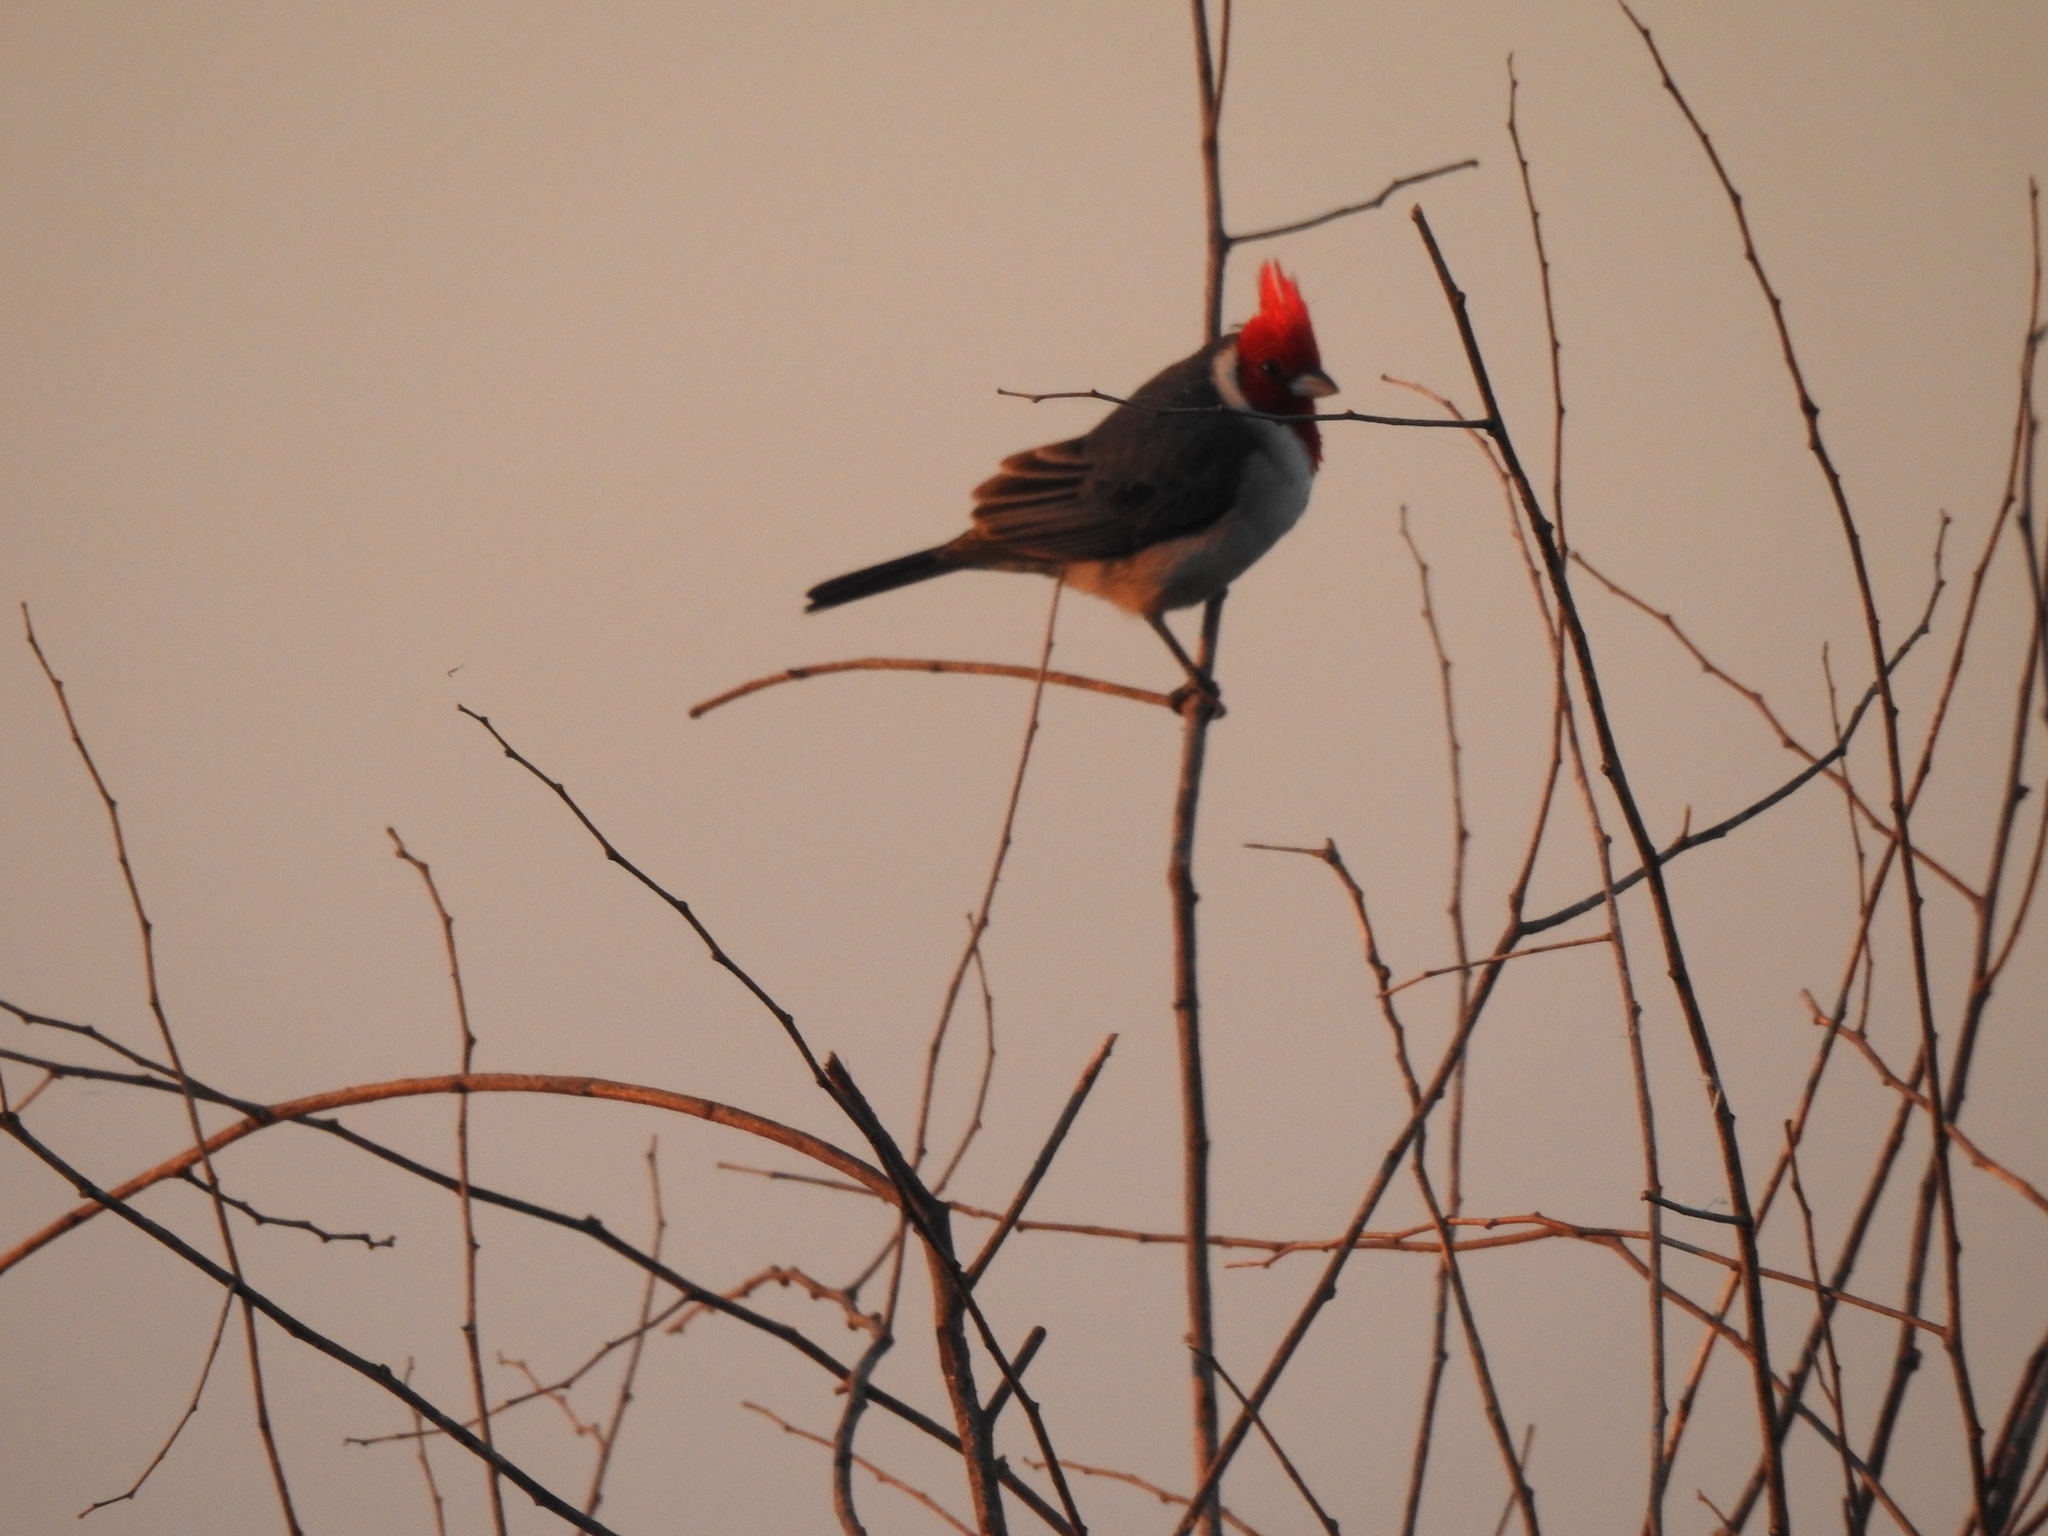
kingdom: Animalia
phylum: Chordata
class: Aves
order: Passeriformes
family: Thraupidae
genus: Paroaria
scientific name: Paroaria coronata
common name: Red-crested cardinal
